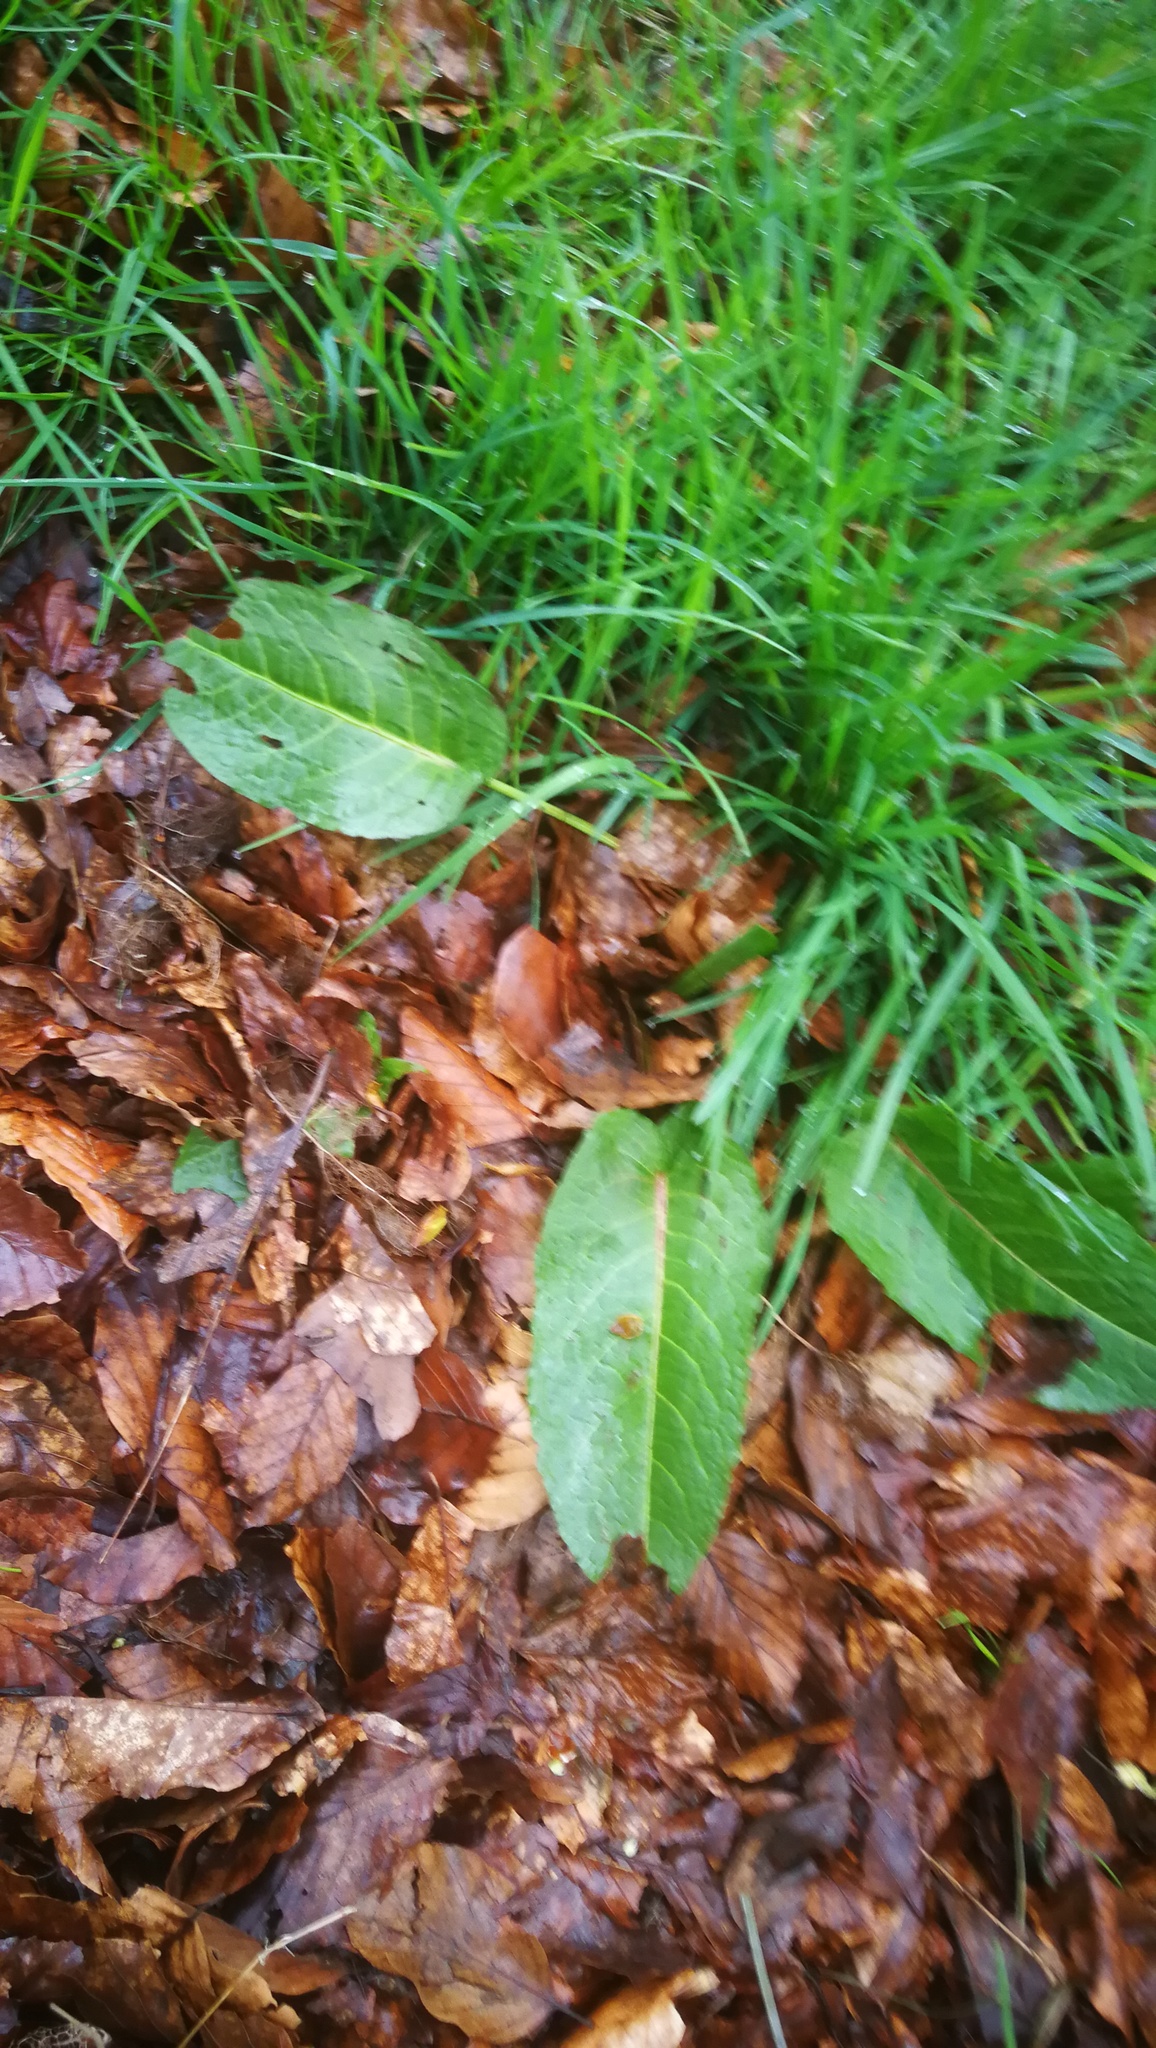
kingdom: Plantae
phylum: Tracheophyta
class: Magnoliopsida
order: Caryophyllales
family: Polygonaceae
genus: Rumex
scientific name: Rumex obtusifolius
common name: Bitter dock
